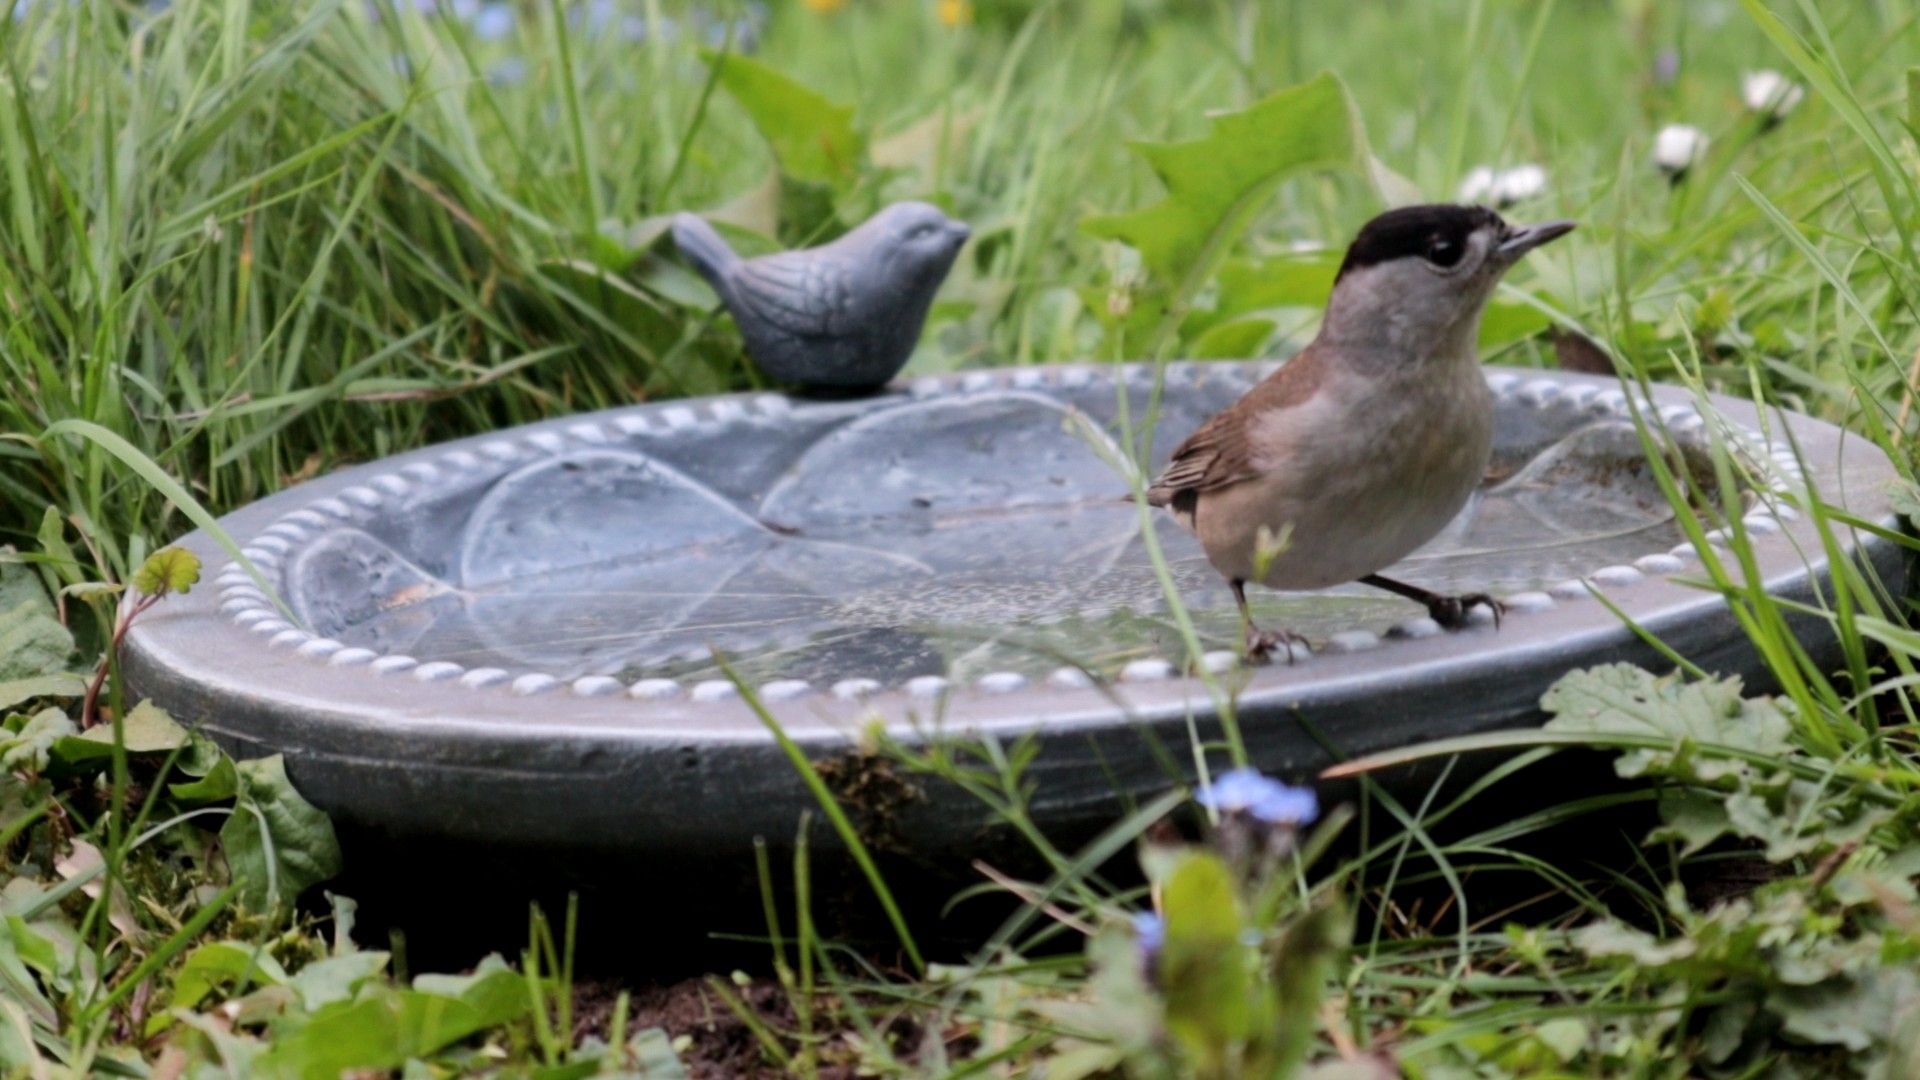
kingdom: Animalia
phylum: Chordata
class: Aves
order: Passeriformes
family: Sylviidae
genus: Sylvia
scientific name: Sylvia atricapilla
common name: Eurasian blackcap
